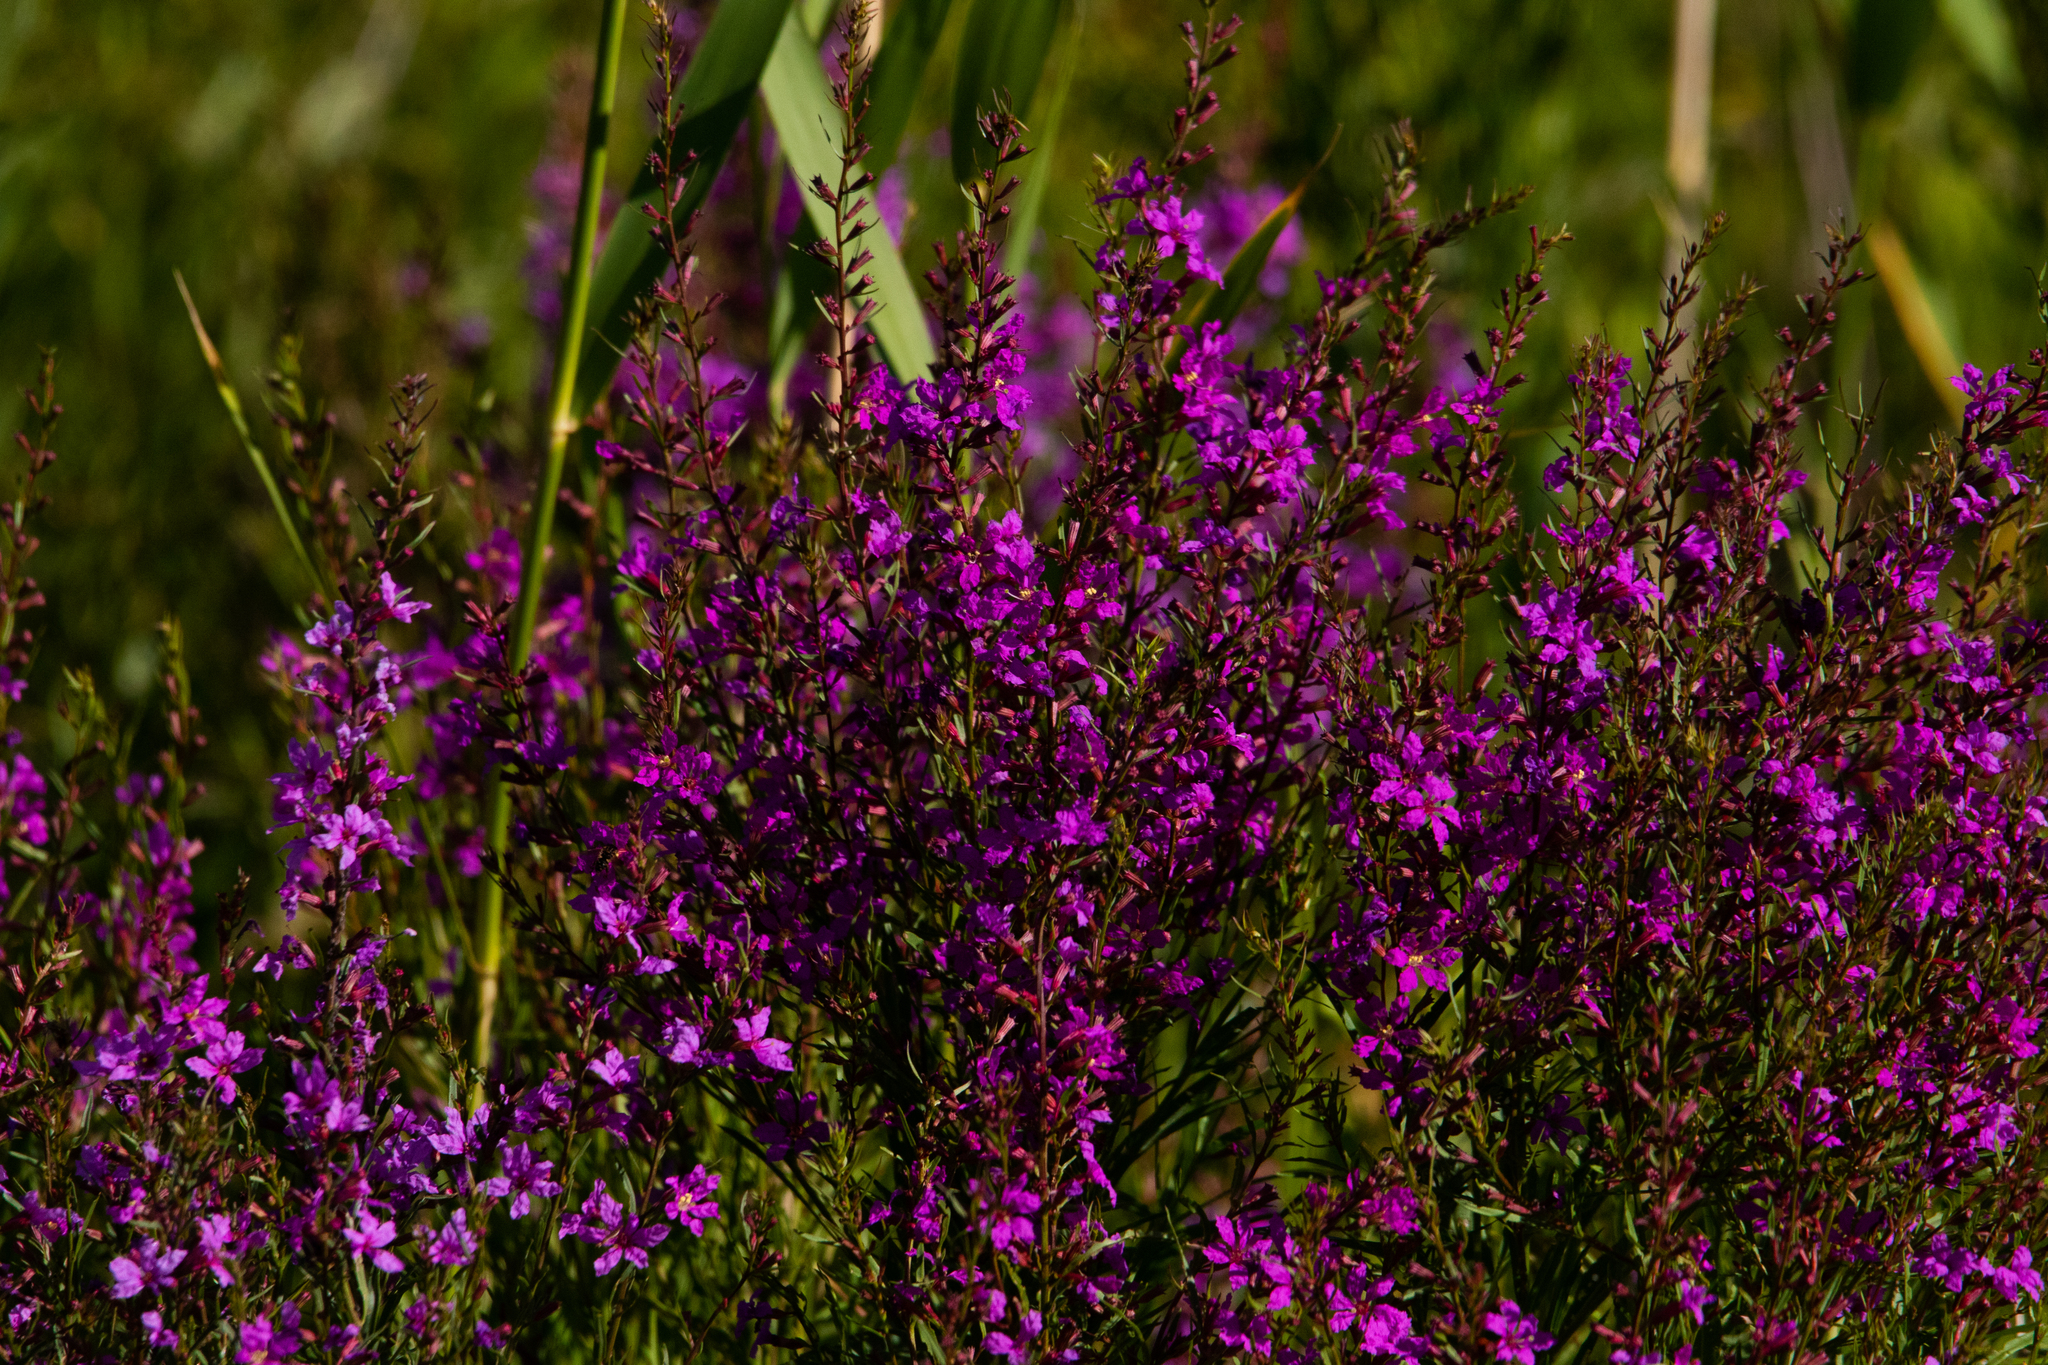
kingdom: Plantae
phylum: Tracheophyta
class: Magnoliopsida
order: Myrtales
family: Lythraceae
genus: Lythrum
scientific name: Lythrum virgatum
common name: European wand loosestrife
